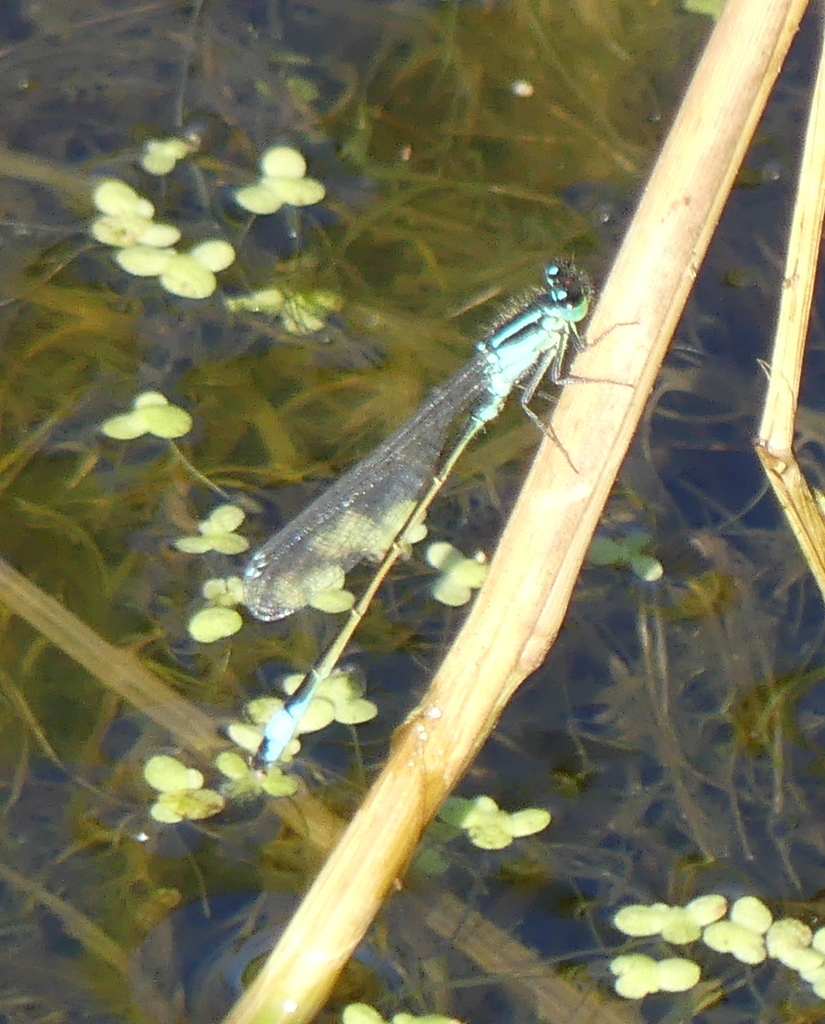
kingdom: Animalia
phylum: Arthropoda
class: Insecta
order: Odonata
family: Coenagrionidae
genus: Ischnura
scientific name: Ischnura elegans
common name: Blue-tailed damselfly
